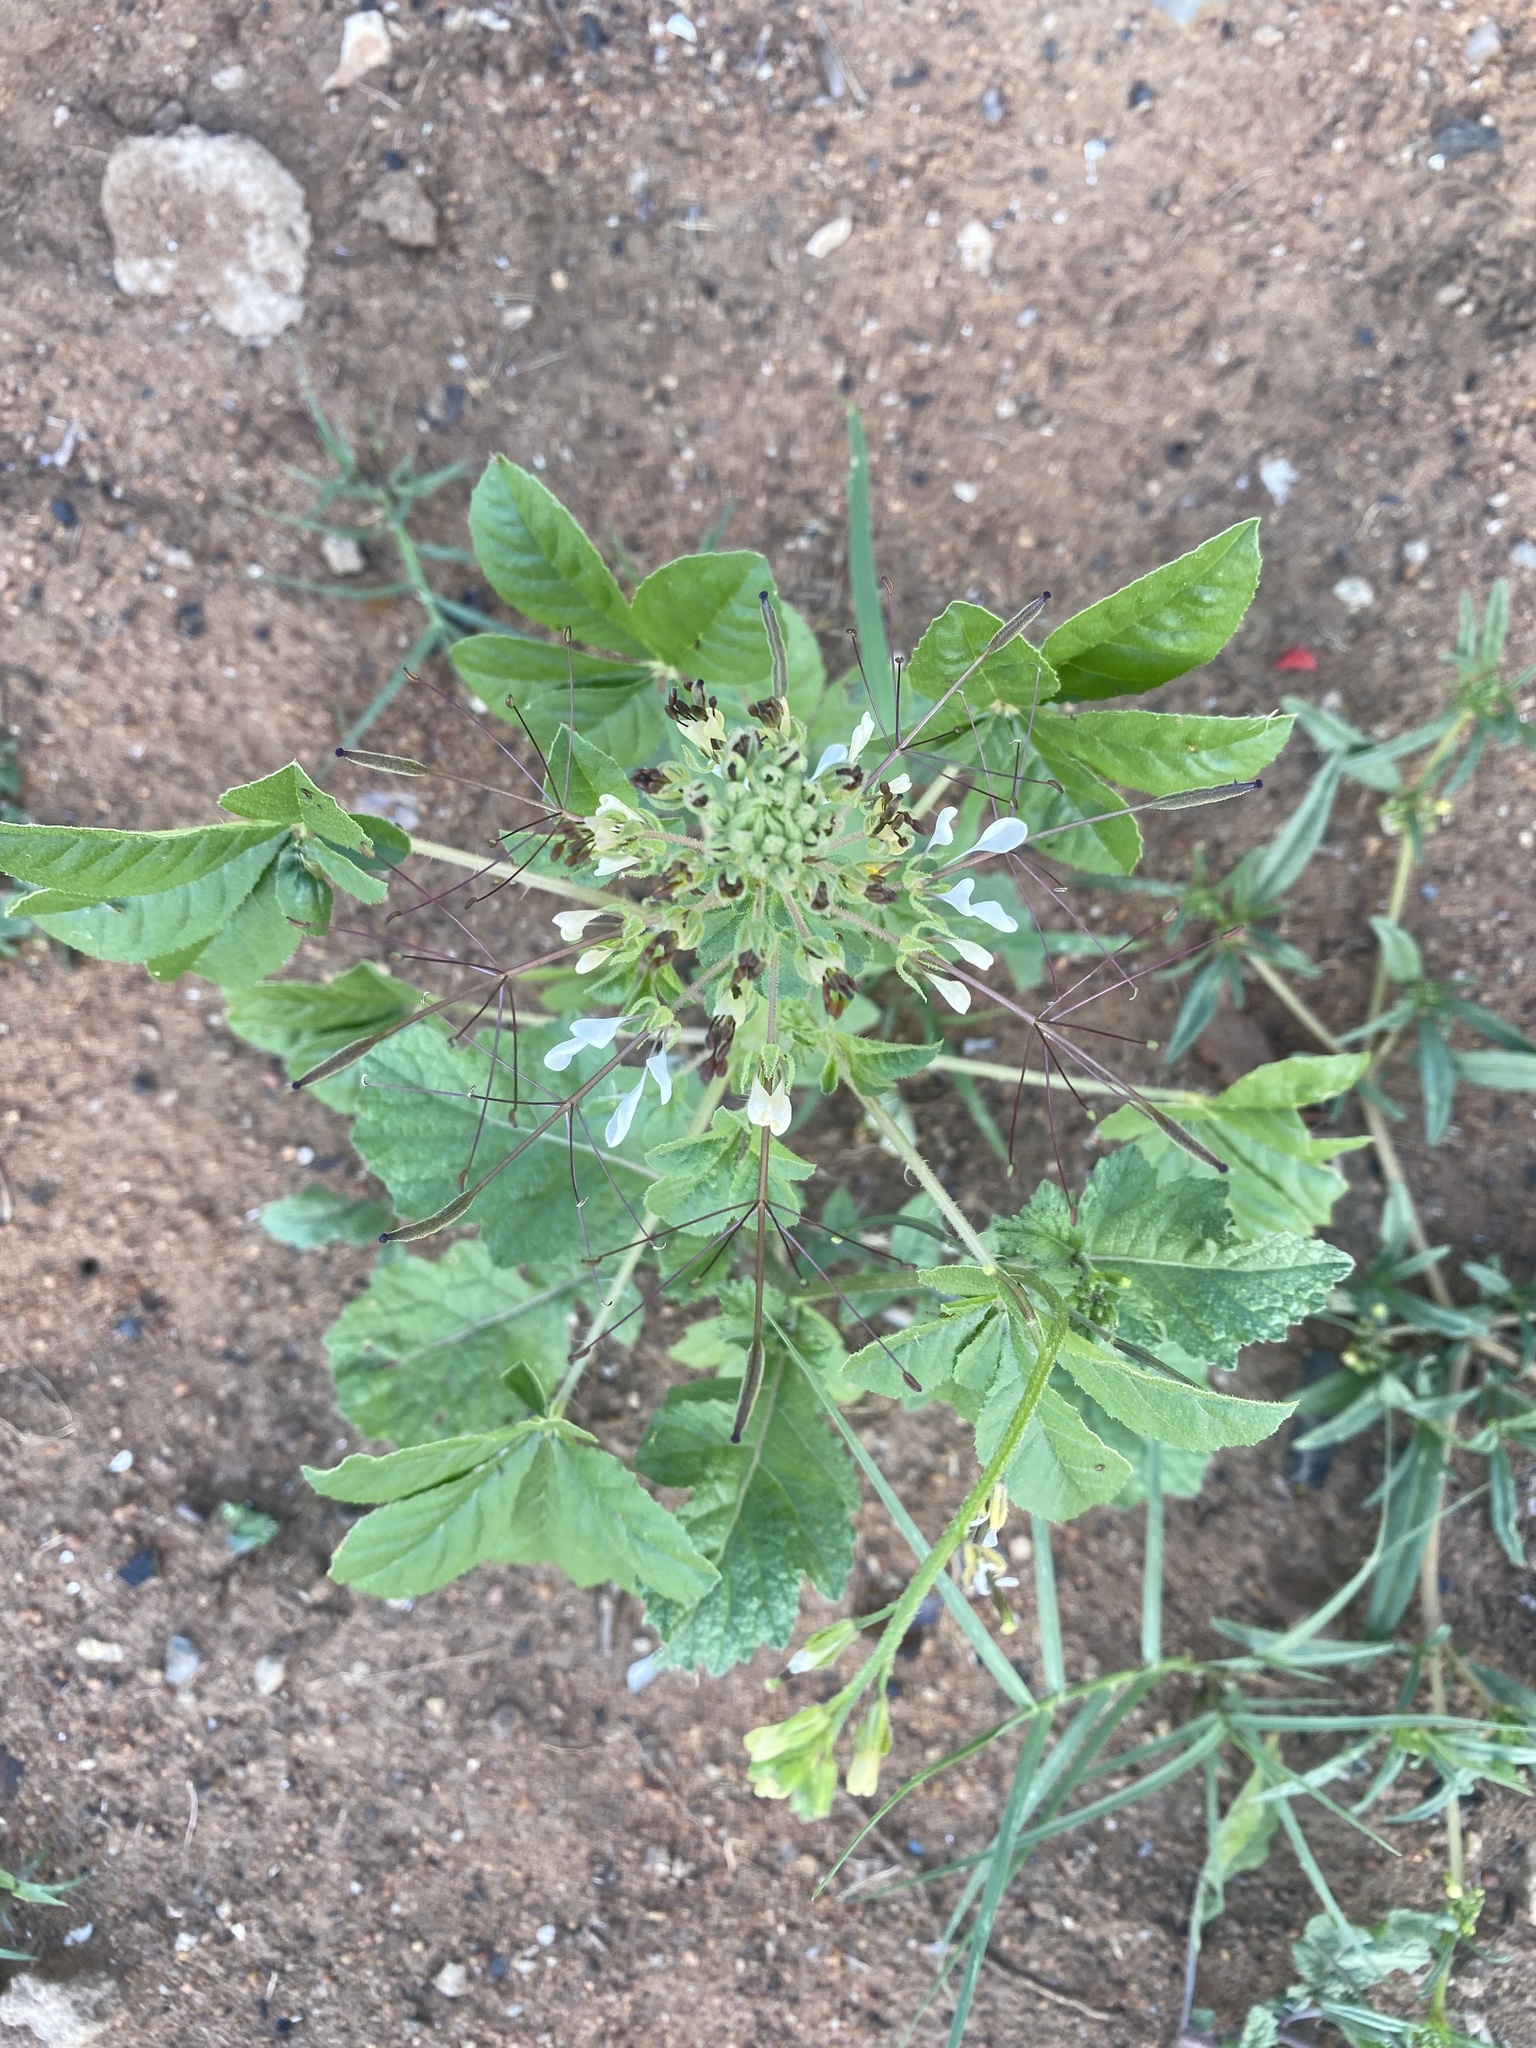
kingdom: Plantae
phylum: Tracheophyta
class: Magnoliopsida
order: Brassicales
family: Cleomaceae
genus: Gynandropsis
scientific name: Gynandropsis gynandra
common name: Spiderwisp
